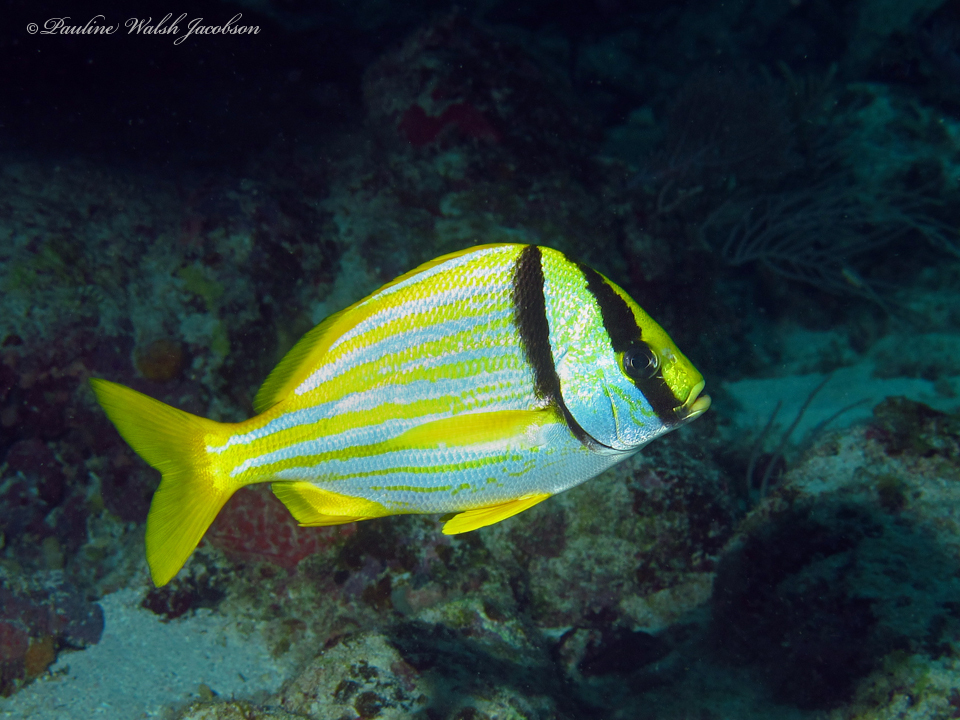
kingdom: Animalia
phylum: Chordata
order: Perciformes
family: Haemulidae
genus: Anisotremus
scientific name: Anisotremus virginicus
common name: Porkfish
